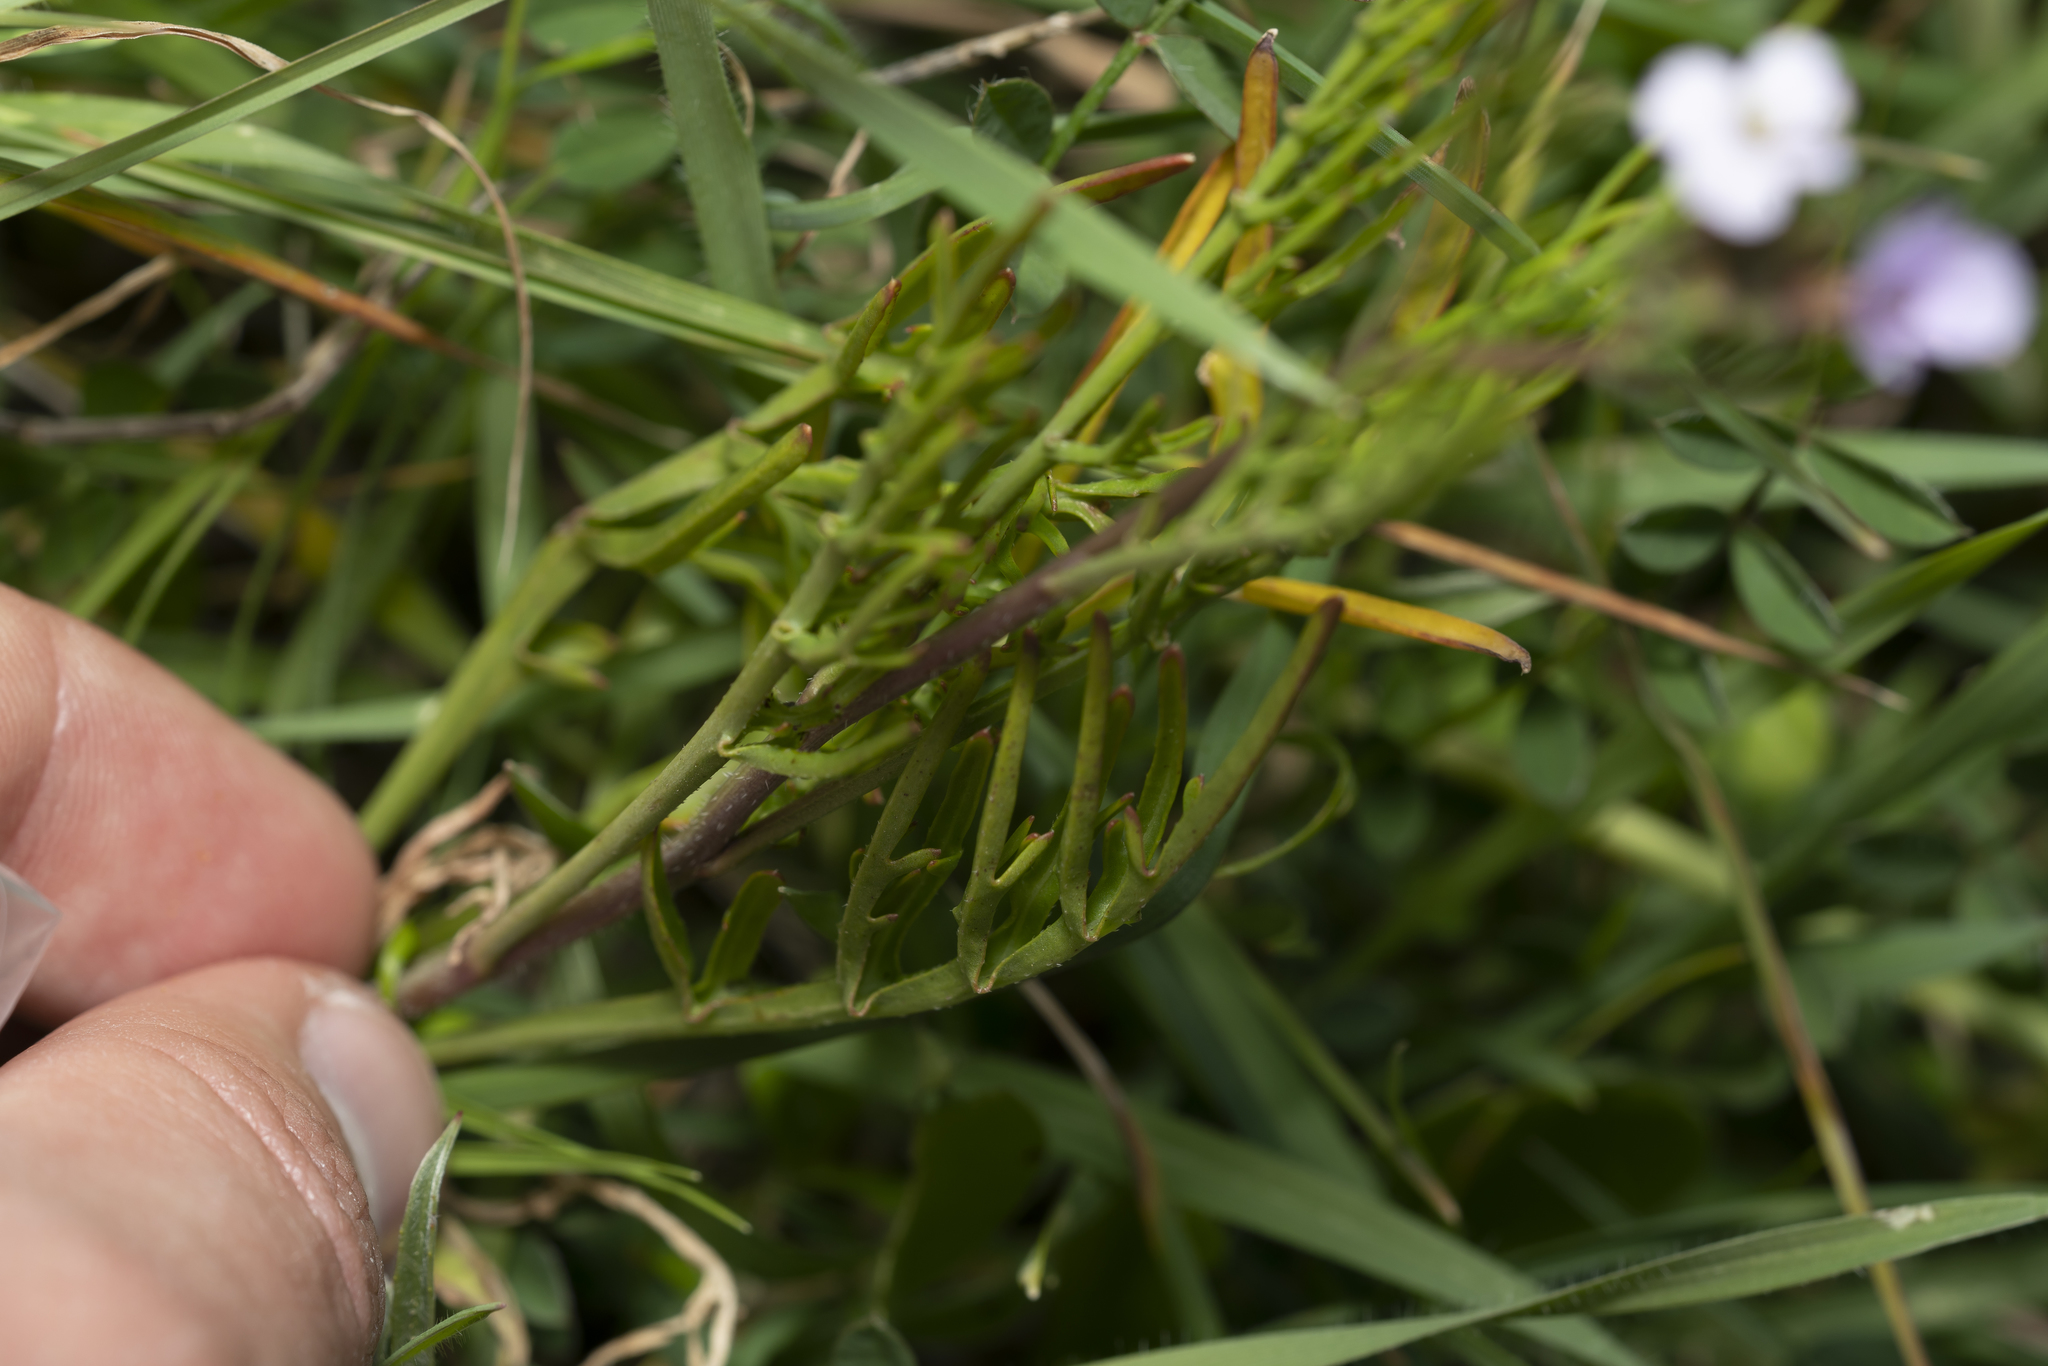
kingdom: Plantae
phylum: Tracheophyta
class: Magnoliopsida
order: Brassicales
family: Brassicaceae
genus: Erucaria
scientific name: Erucaria hispanica
